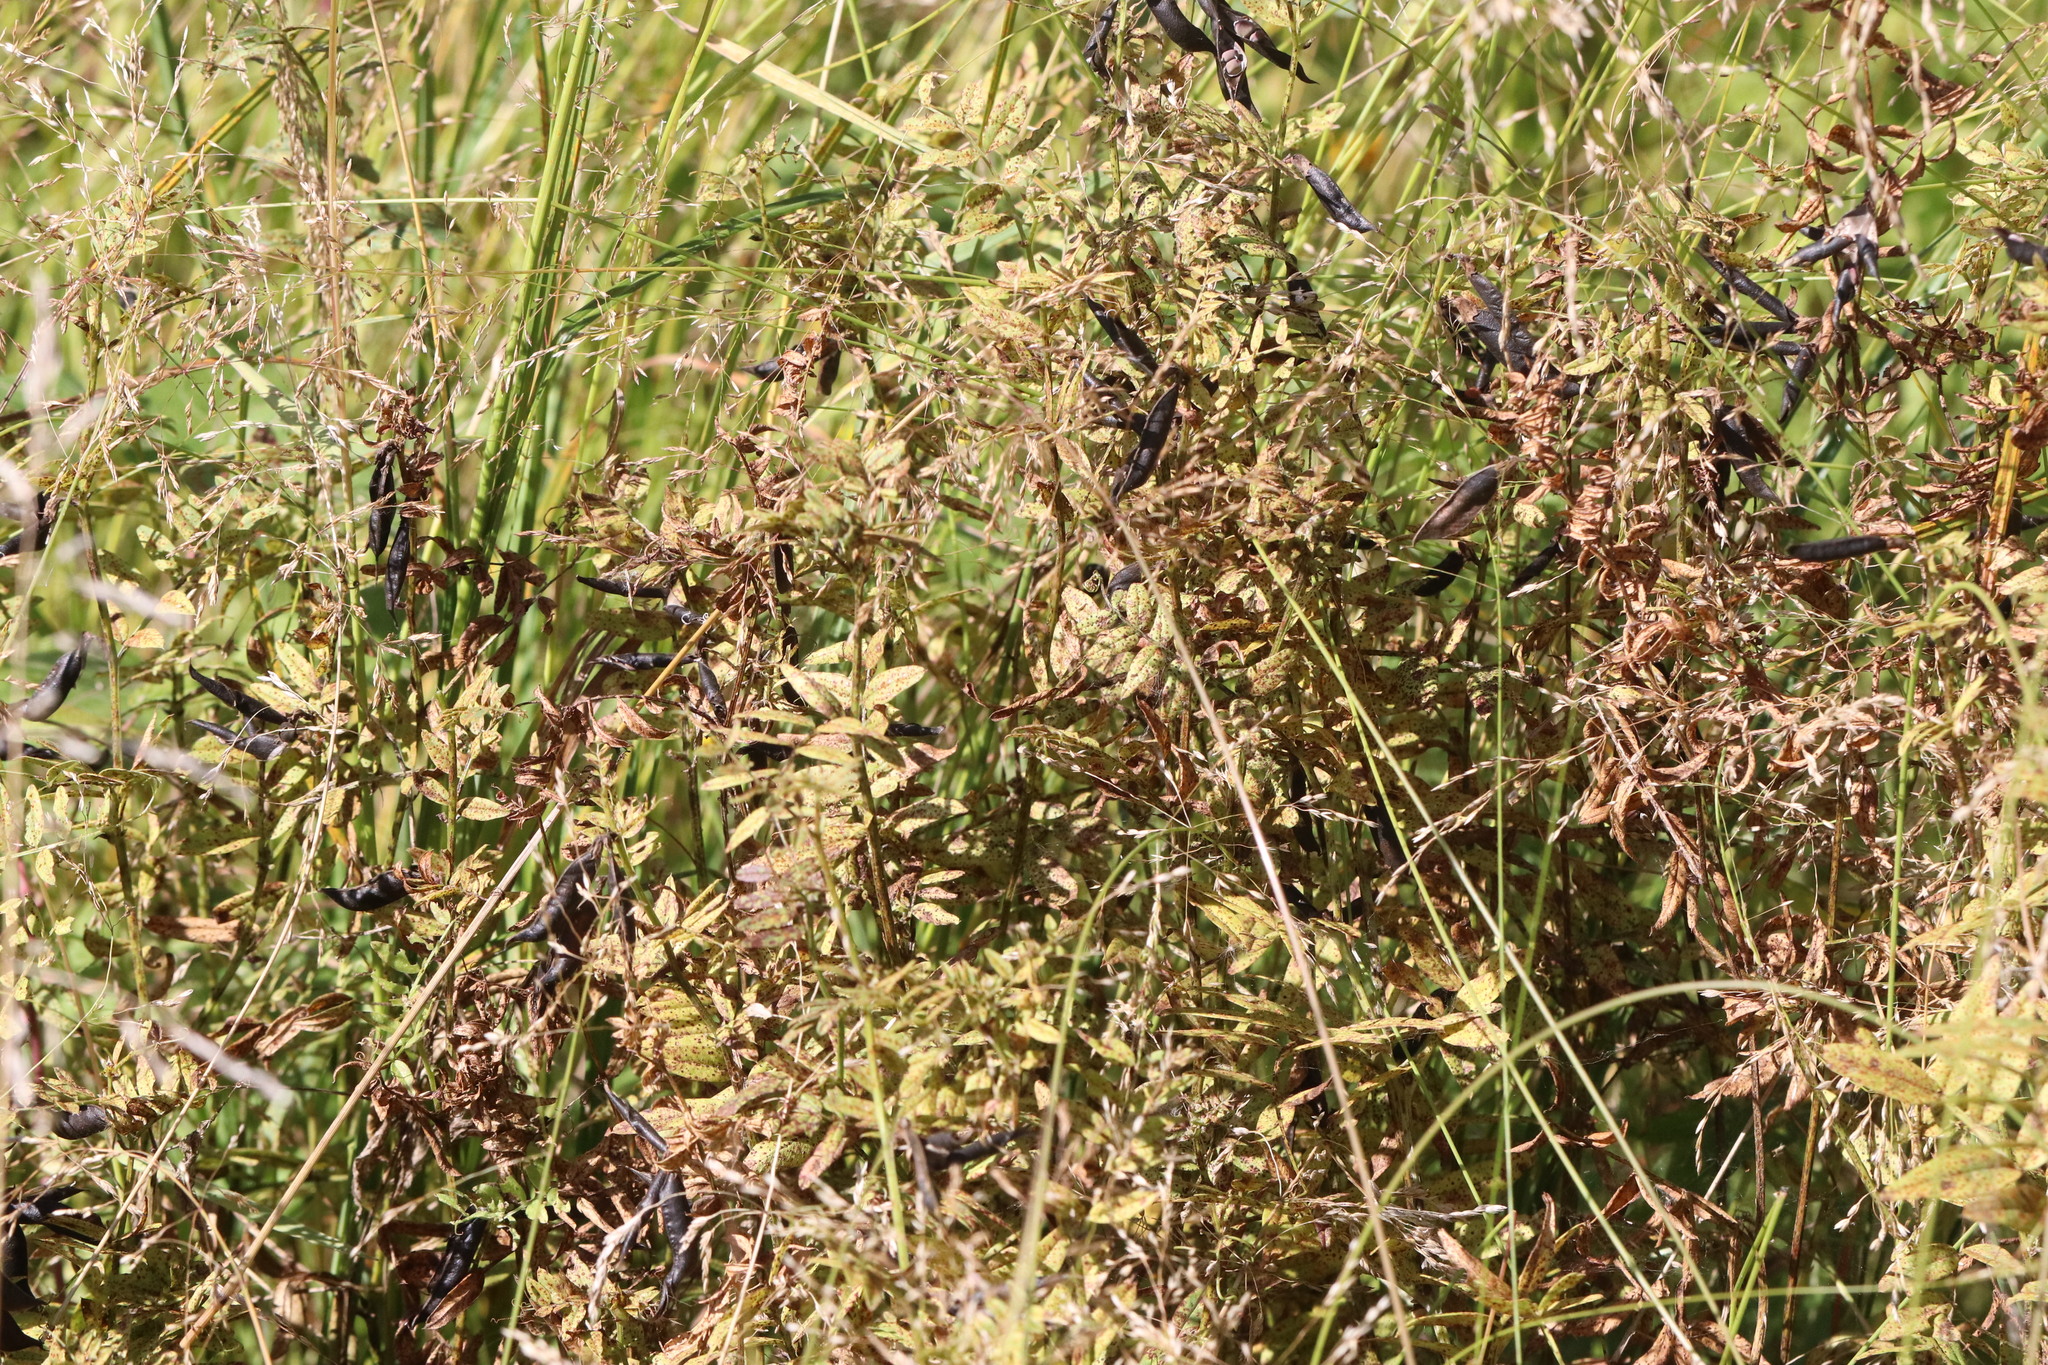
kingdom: Plantae
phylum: Tracheophyta
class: Magnoliopsida
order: Fabales
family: Fabaceae
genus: Vicia
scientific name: Vicia sepium
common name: Bush vetch
